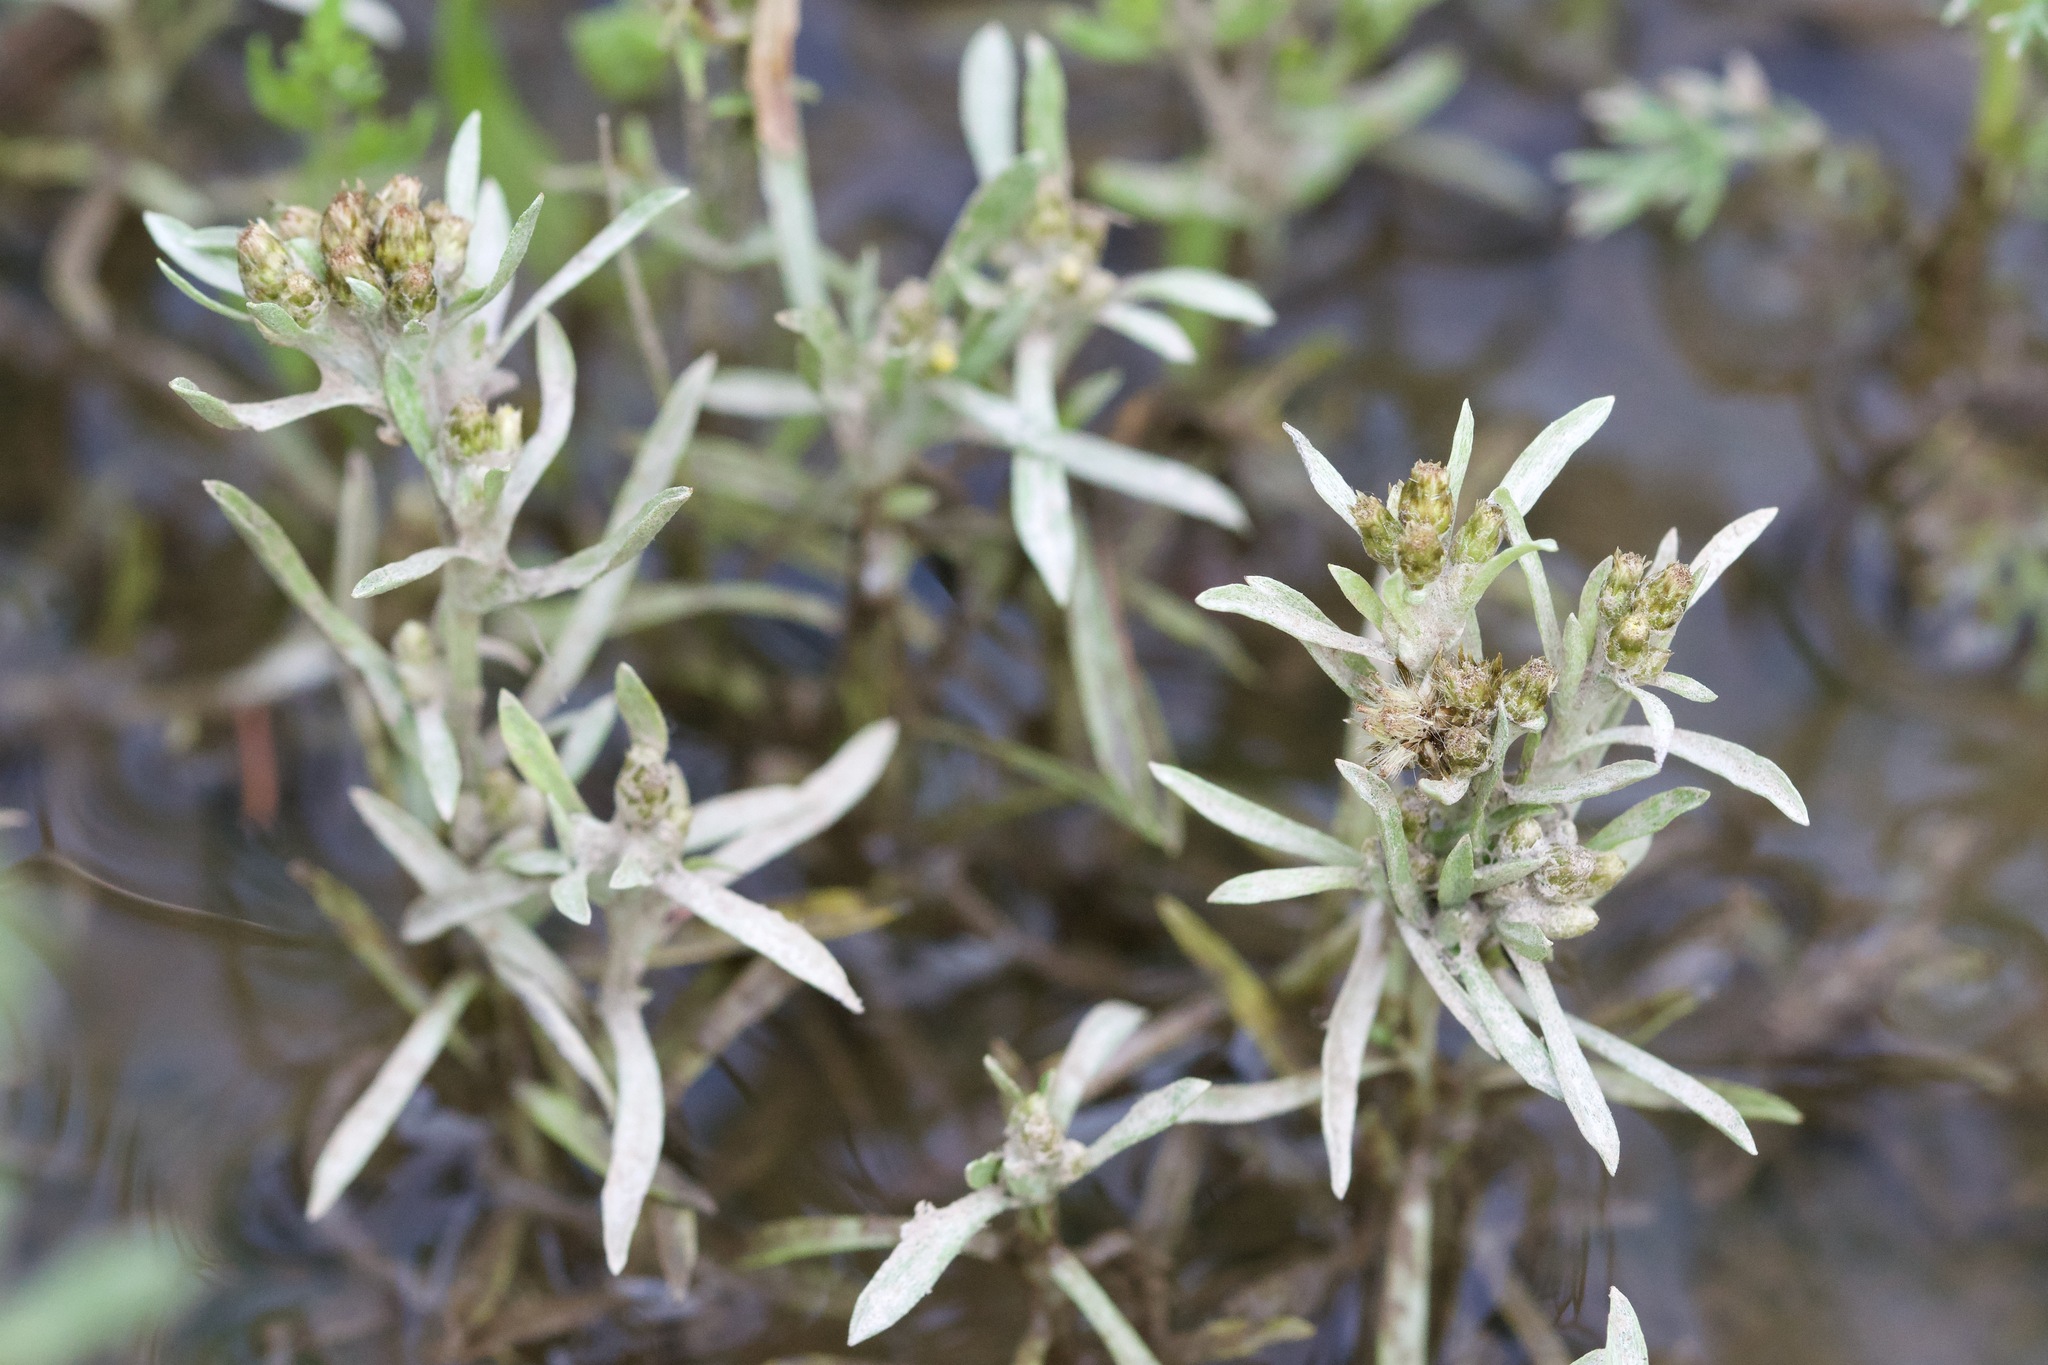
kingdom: Plantae
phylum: Tracheophyta
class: Magnoliopsida
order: Asterales
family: Asteraceae
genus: Gnaphalium
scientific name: Gnaphalium uliginosum
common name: Marsh cudweed
